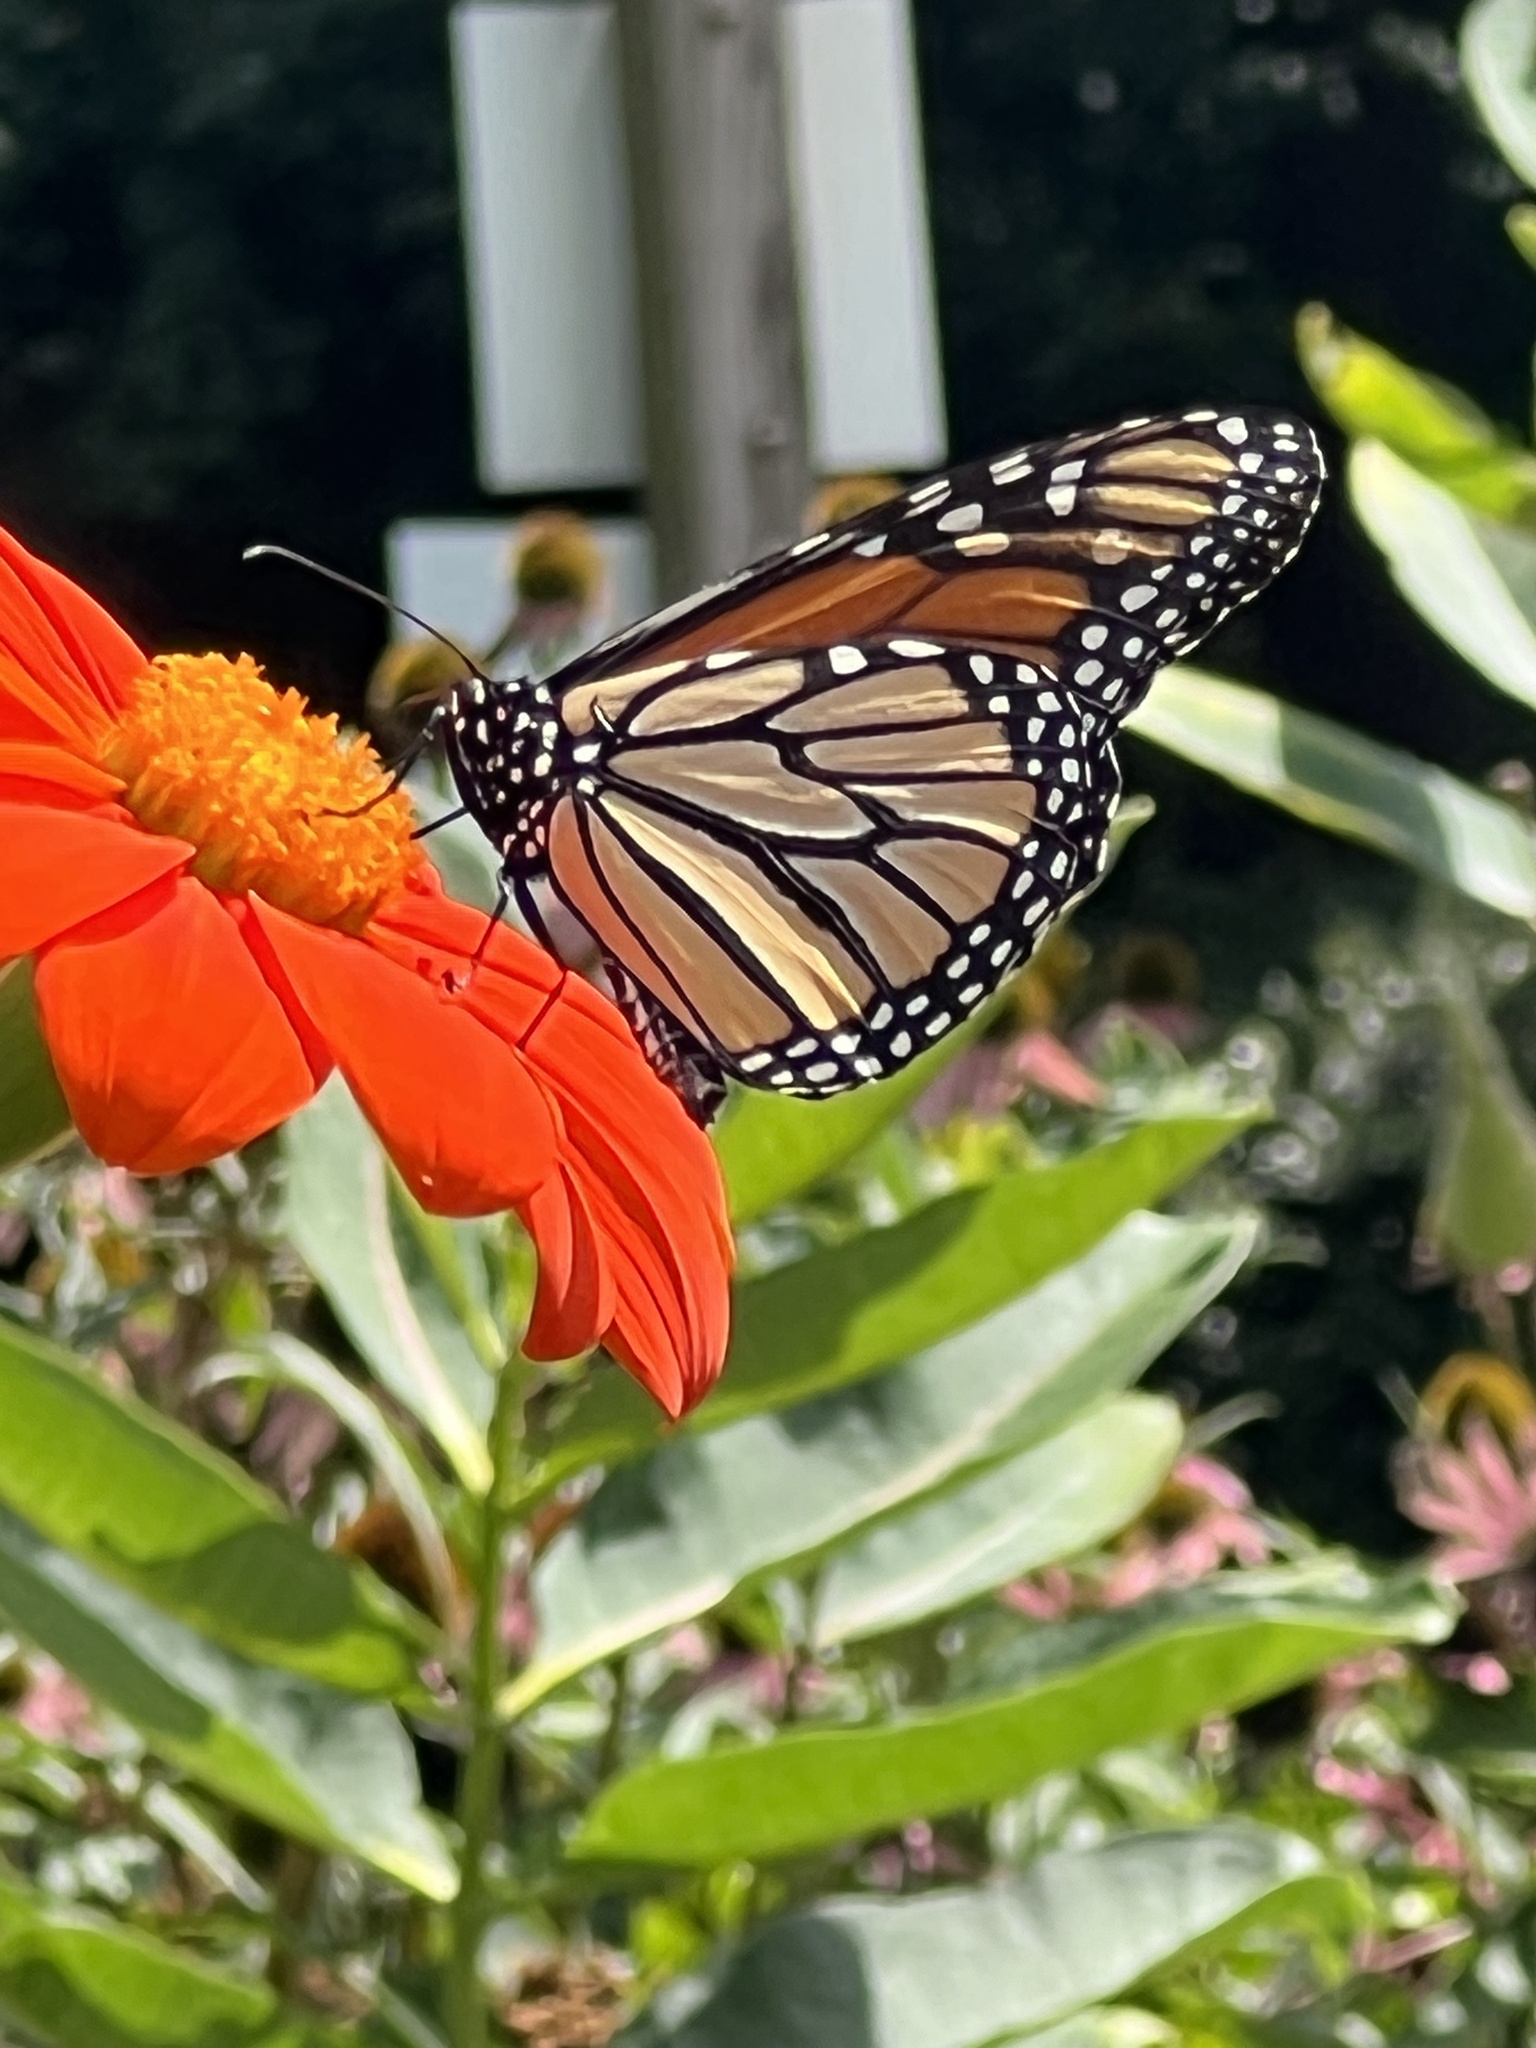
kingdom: Animalia
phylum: Arthropoda
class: Insecta
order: Lepidoptera
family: Nymphalidae
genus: Danaus
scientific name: Danaus plexippus
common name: Monarch
